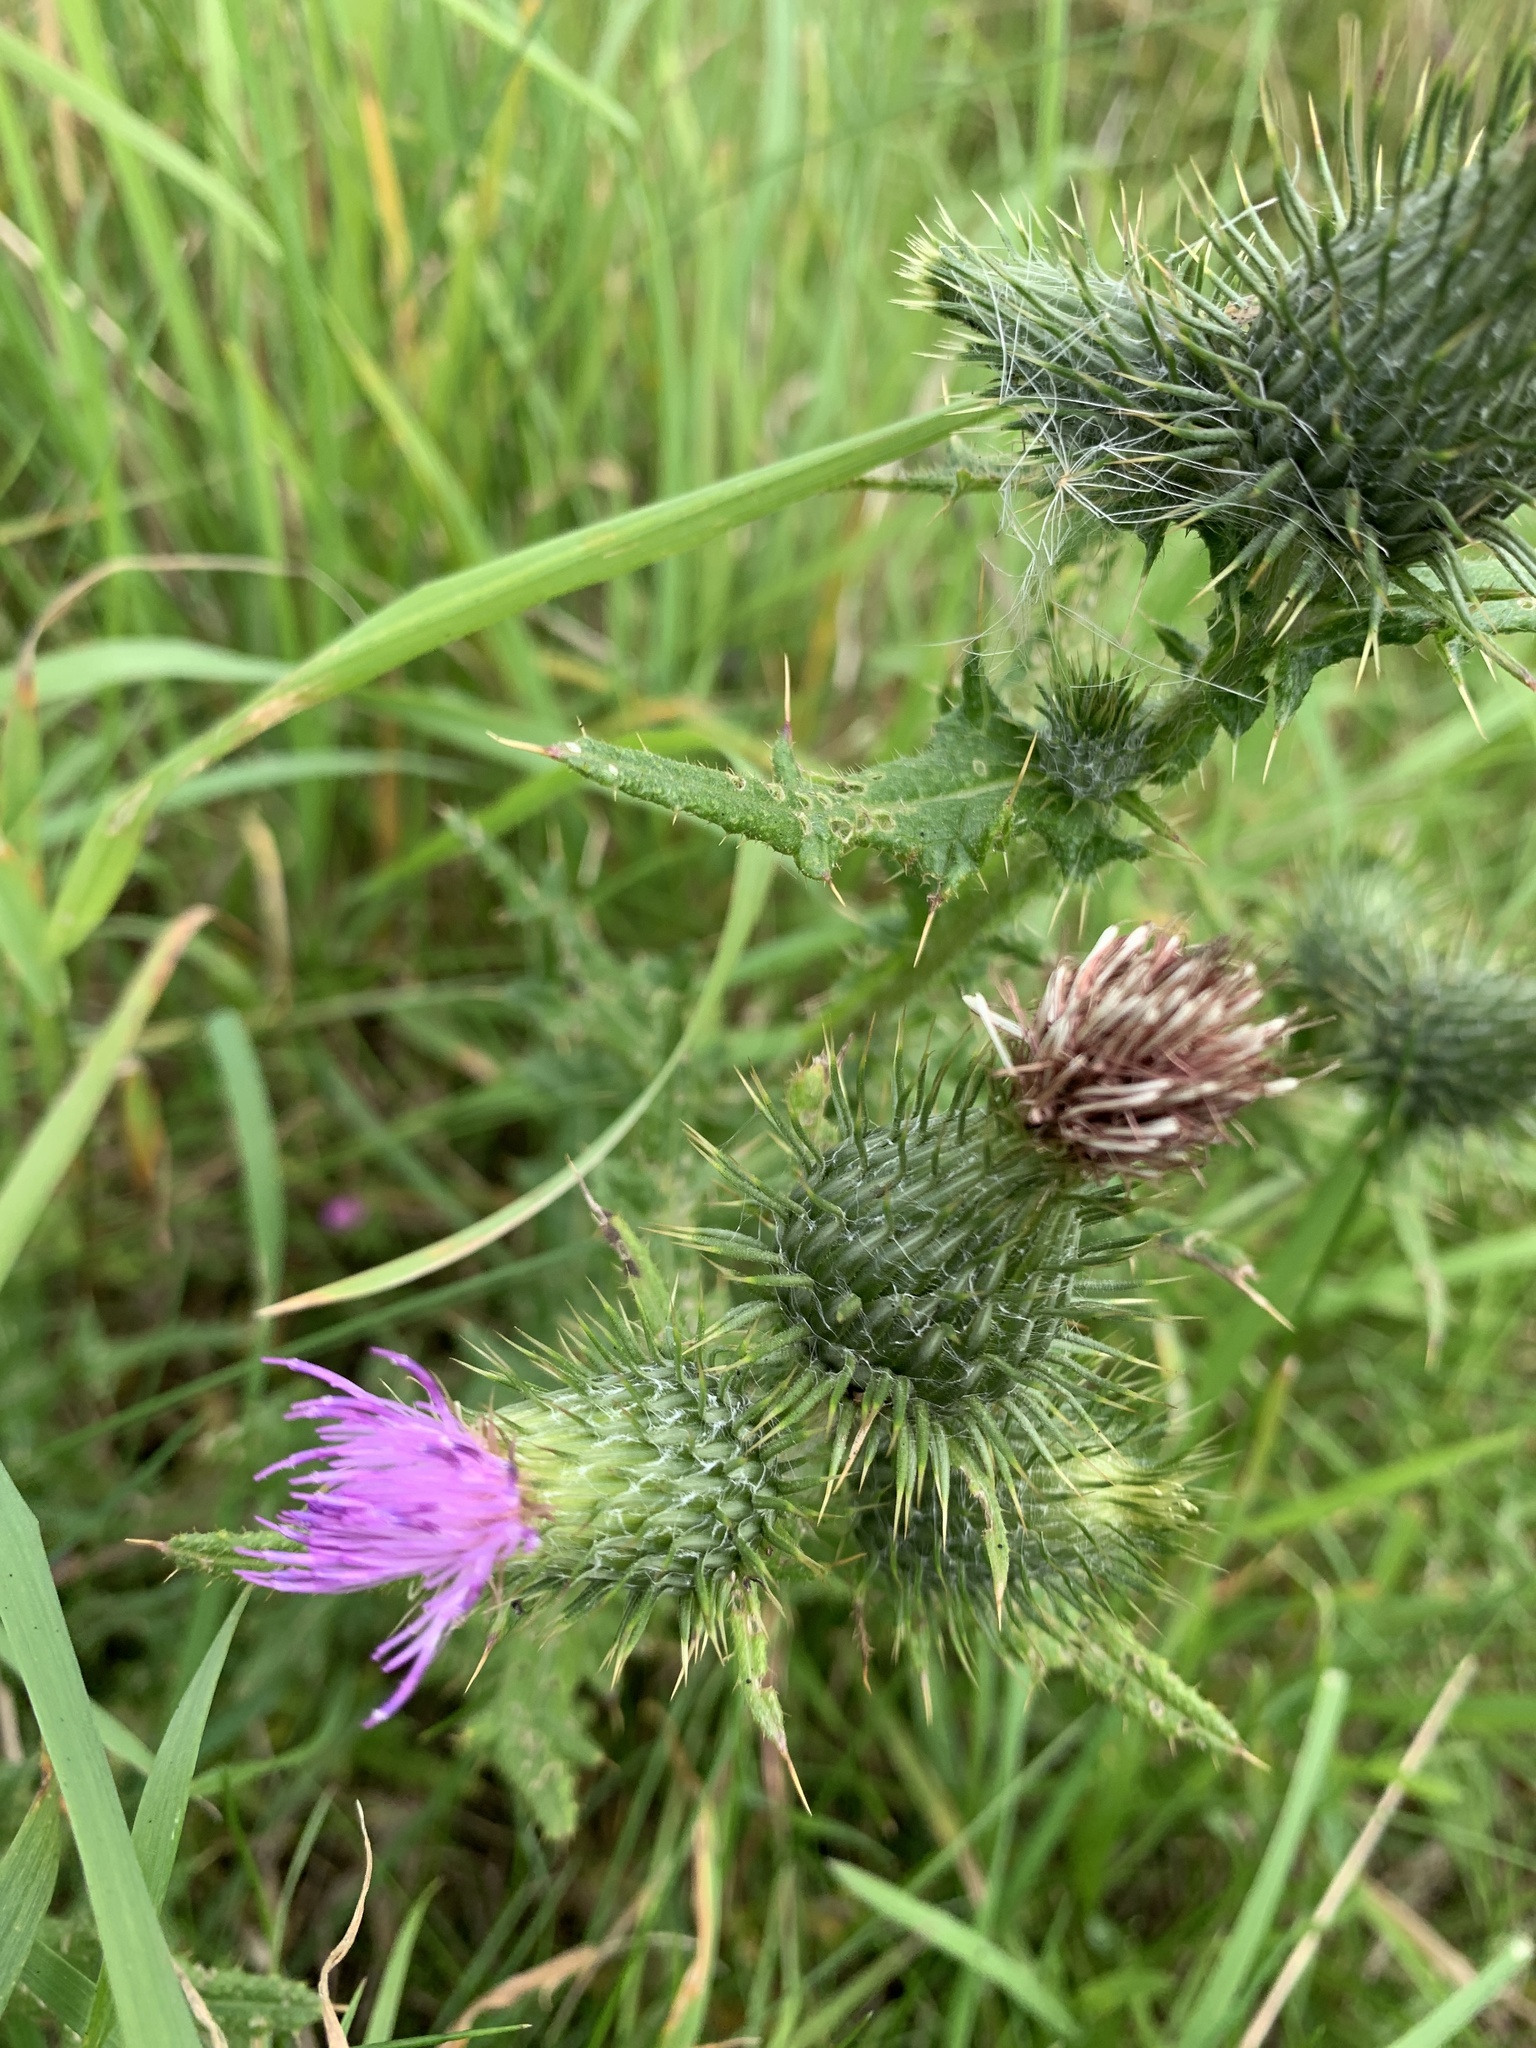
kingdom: Plantae
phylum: Tracheophyta
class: Magnoliopsida
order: Asterales
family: Asteraceae
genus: Cirsium
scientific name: Cirsium vulgare
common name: Bull thistle
